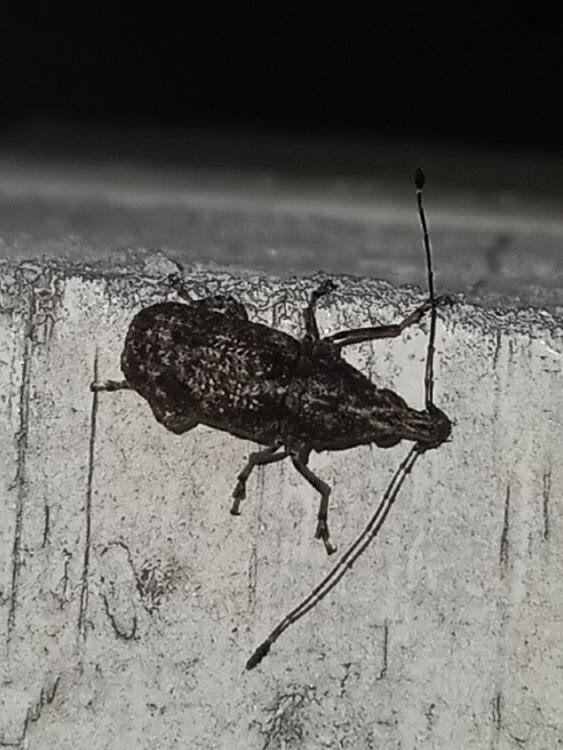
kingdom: Animalia
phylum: Arthropoda
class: Insecta
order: Coleoptera
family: Anthribidae
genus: Meconemus
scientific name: Meconemus infuscatus
